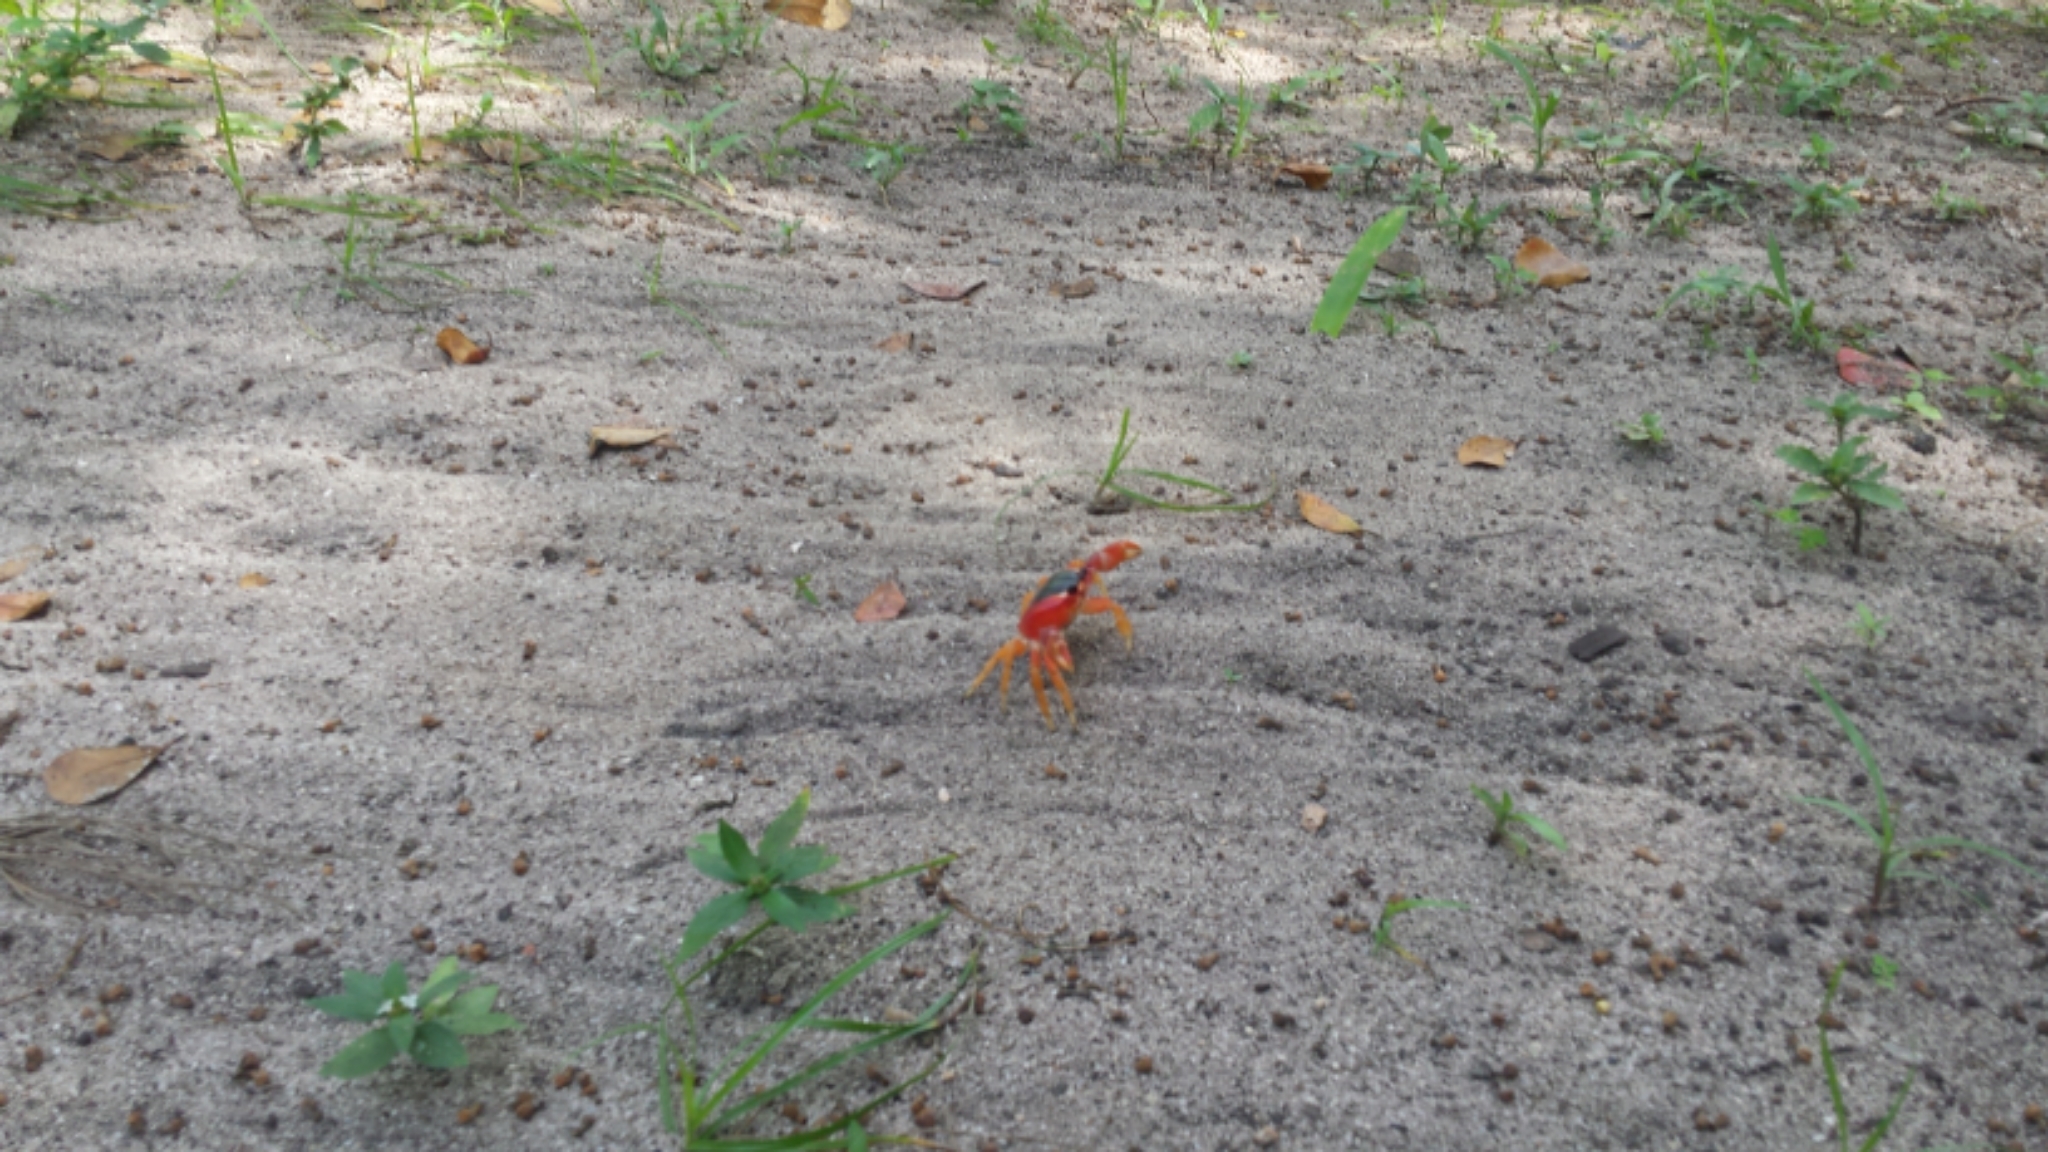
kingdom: Animalia
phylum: Arthropoda
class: Malacostraca
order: Decapoda
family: Gecarcinidae
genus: Gecarcinus
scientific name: Gecarcinus lateralis
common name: Bermuda land crab
